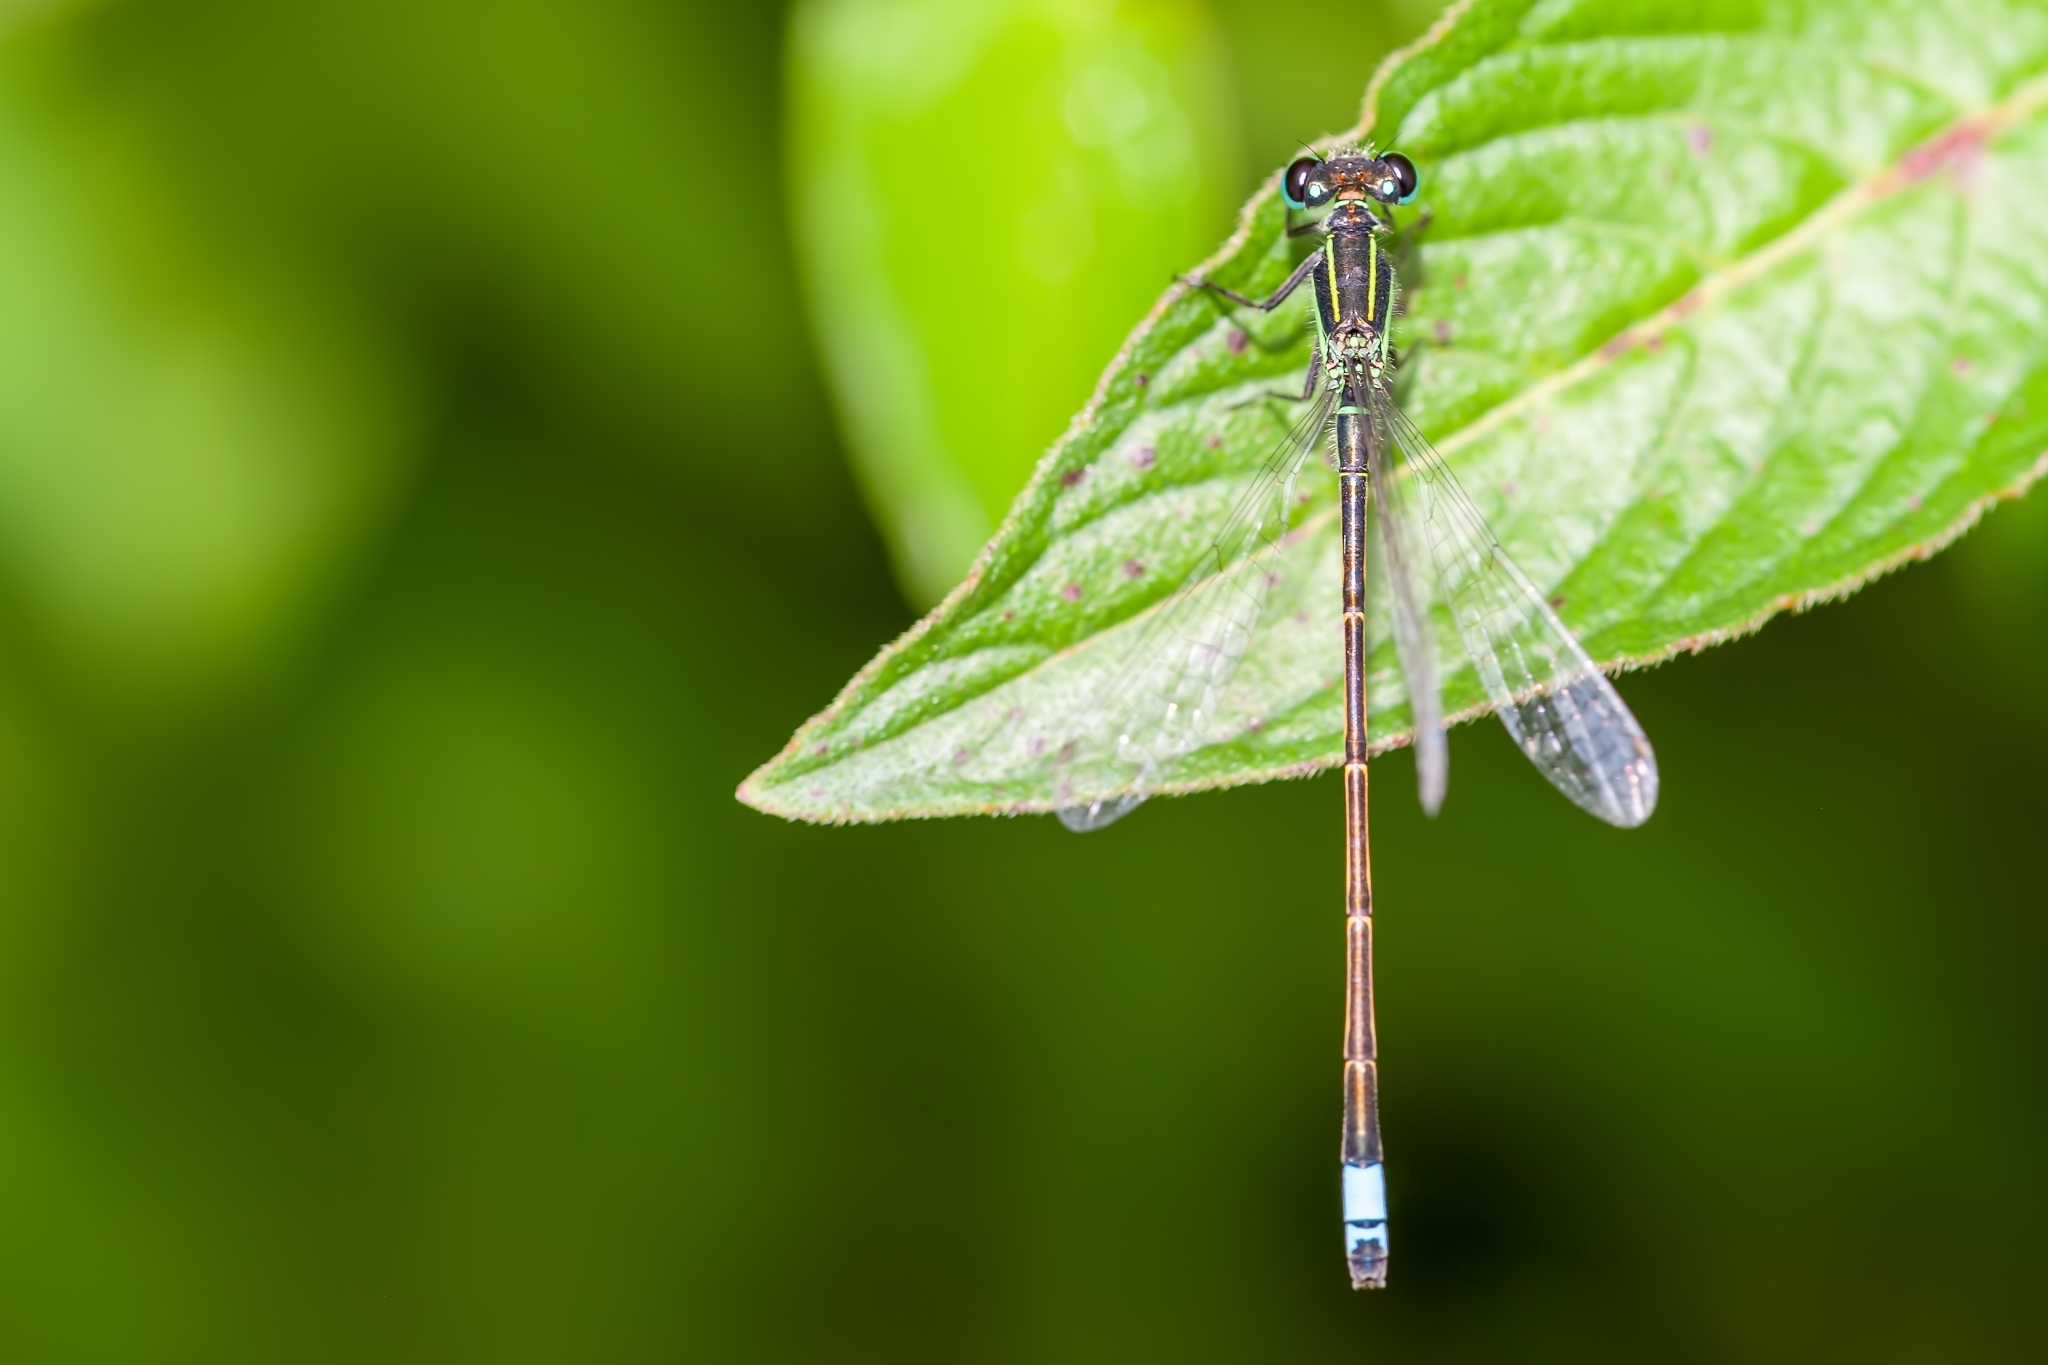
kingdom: Animalia
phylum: Arthropoda
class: Insecta
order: Odonata
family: Coenagrionidae
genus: Ischnura
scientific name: Ischnura ramburii
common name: Rambur's forktail
